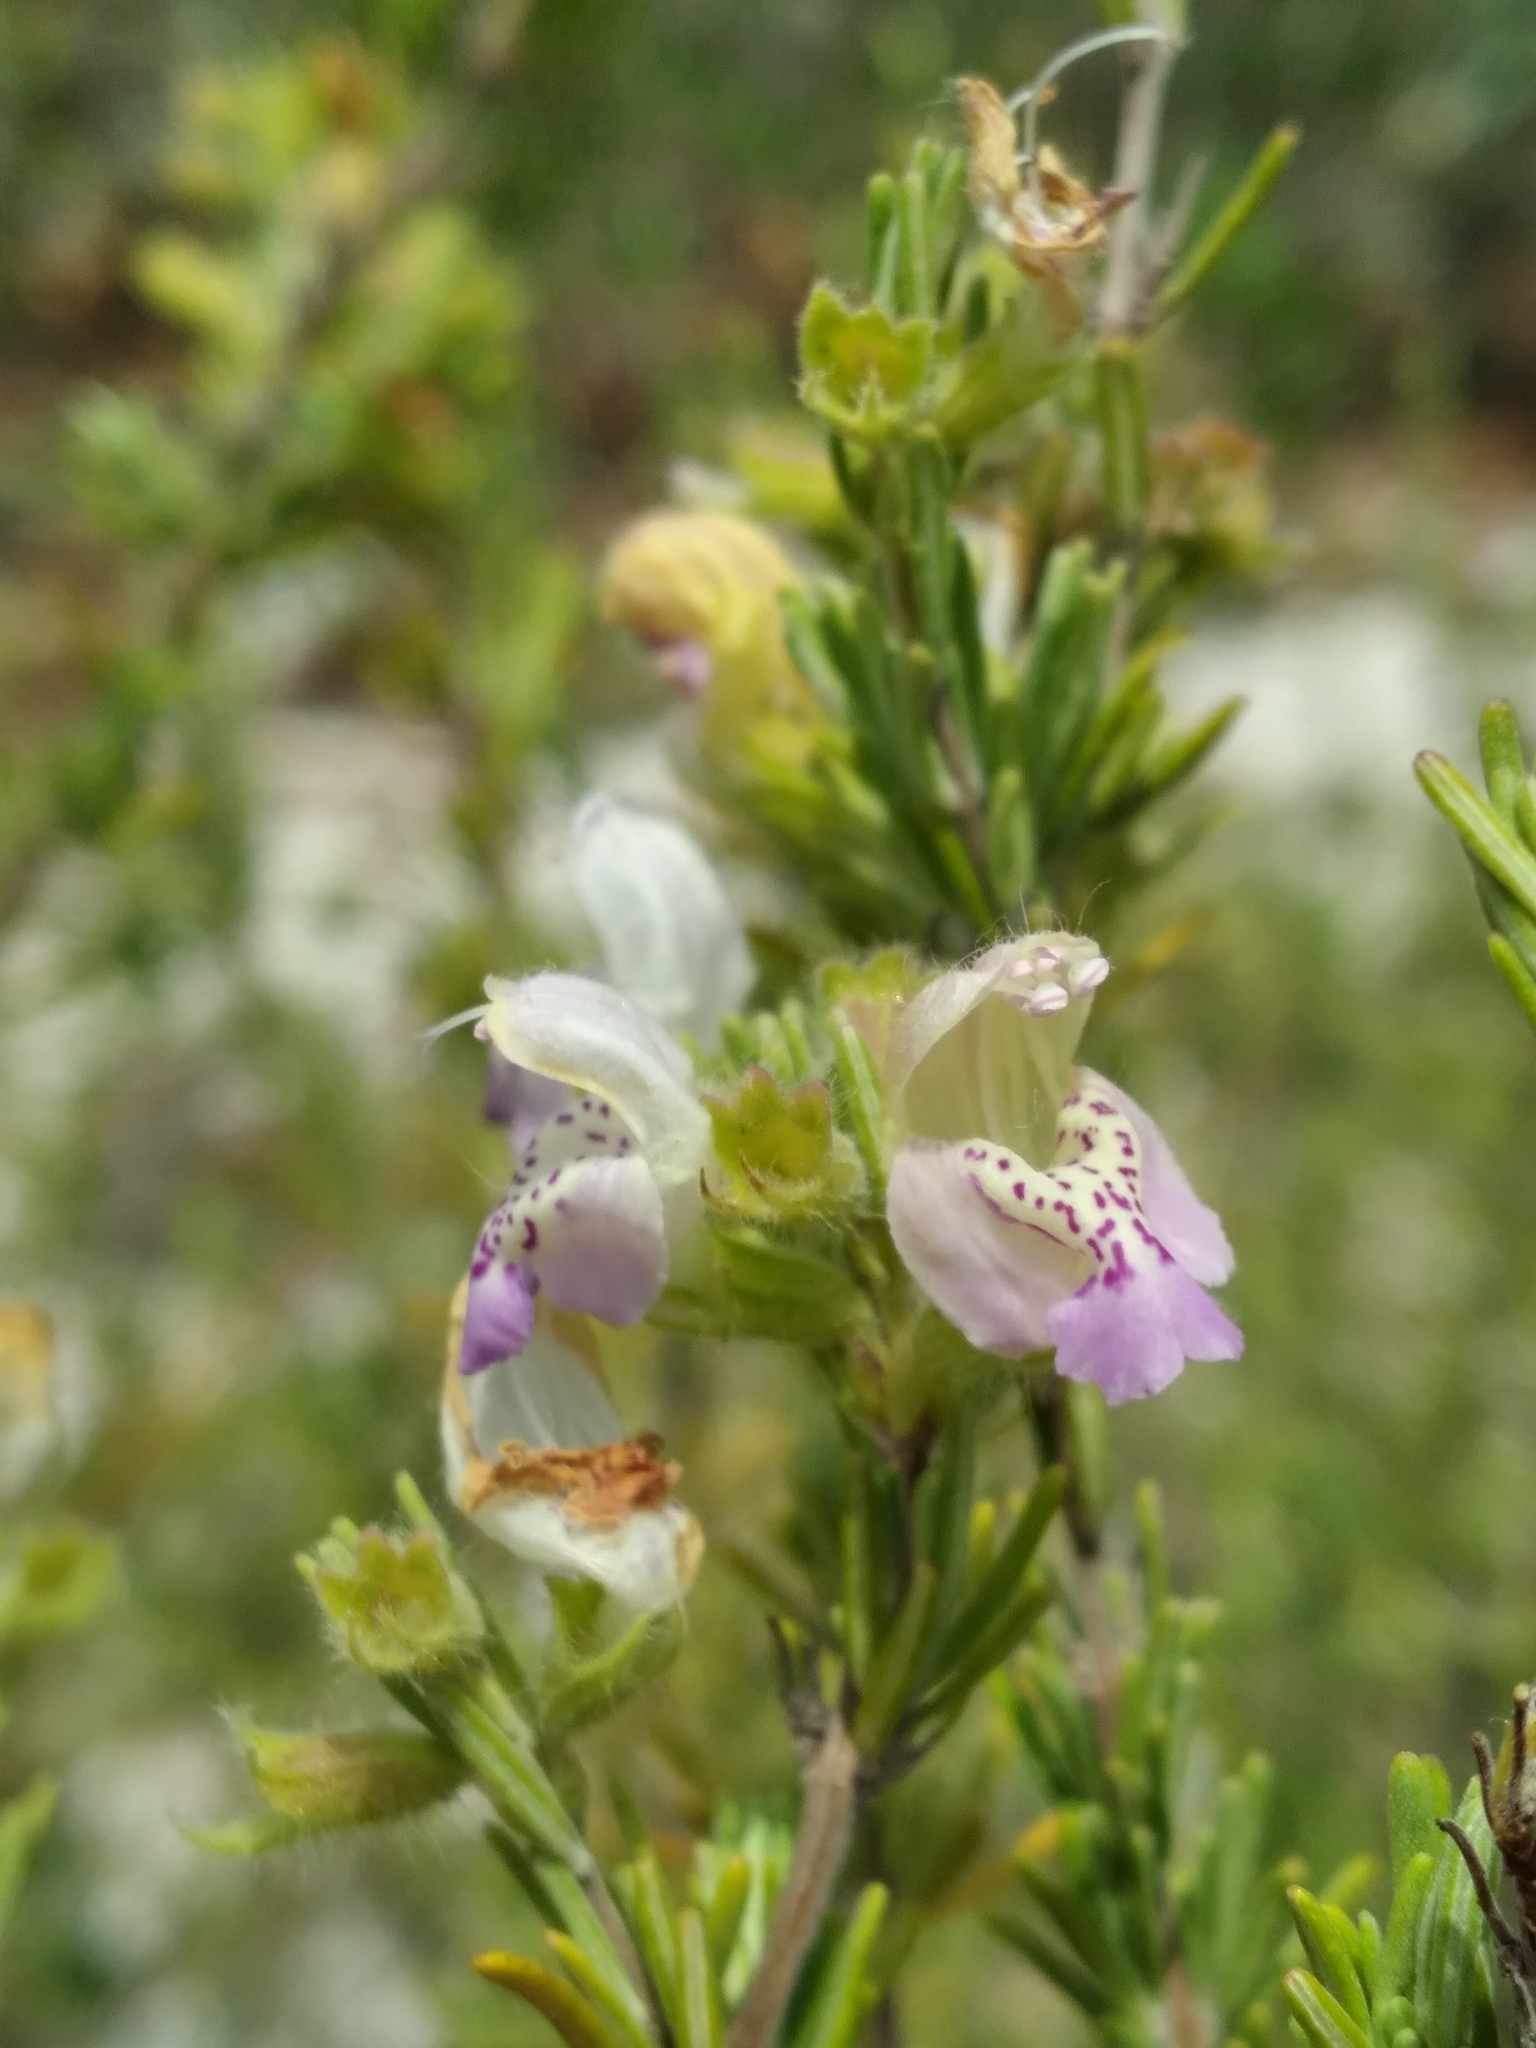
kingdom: Plantae
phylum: Tracheophyta
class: Magnoliopsida
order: Lamiales
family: Lamiaceae
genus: Conradina
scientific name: Conradina canescens
